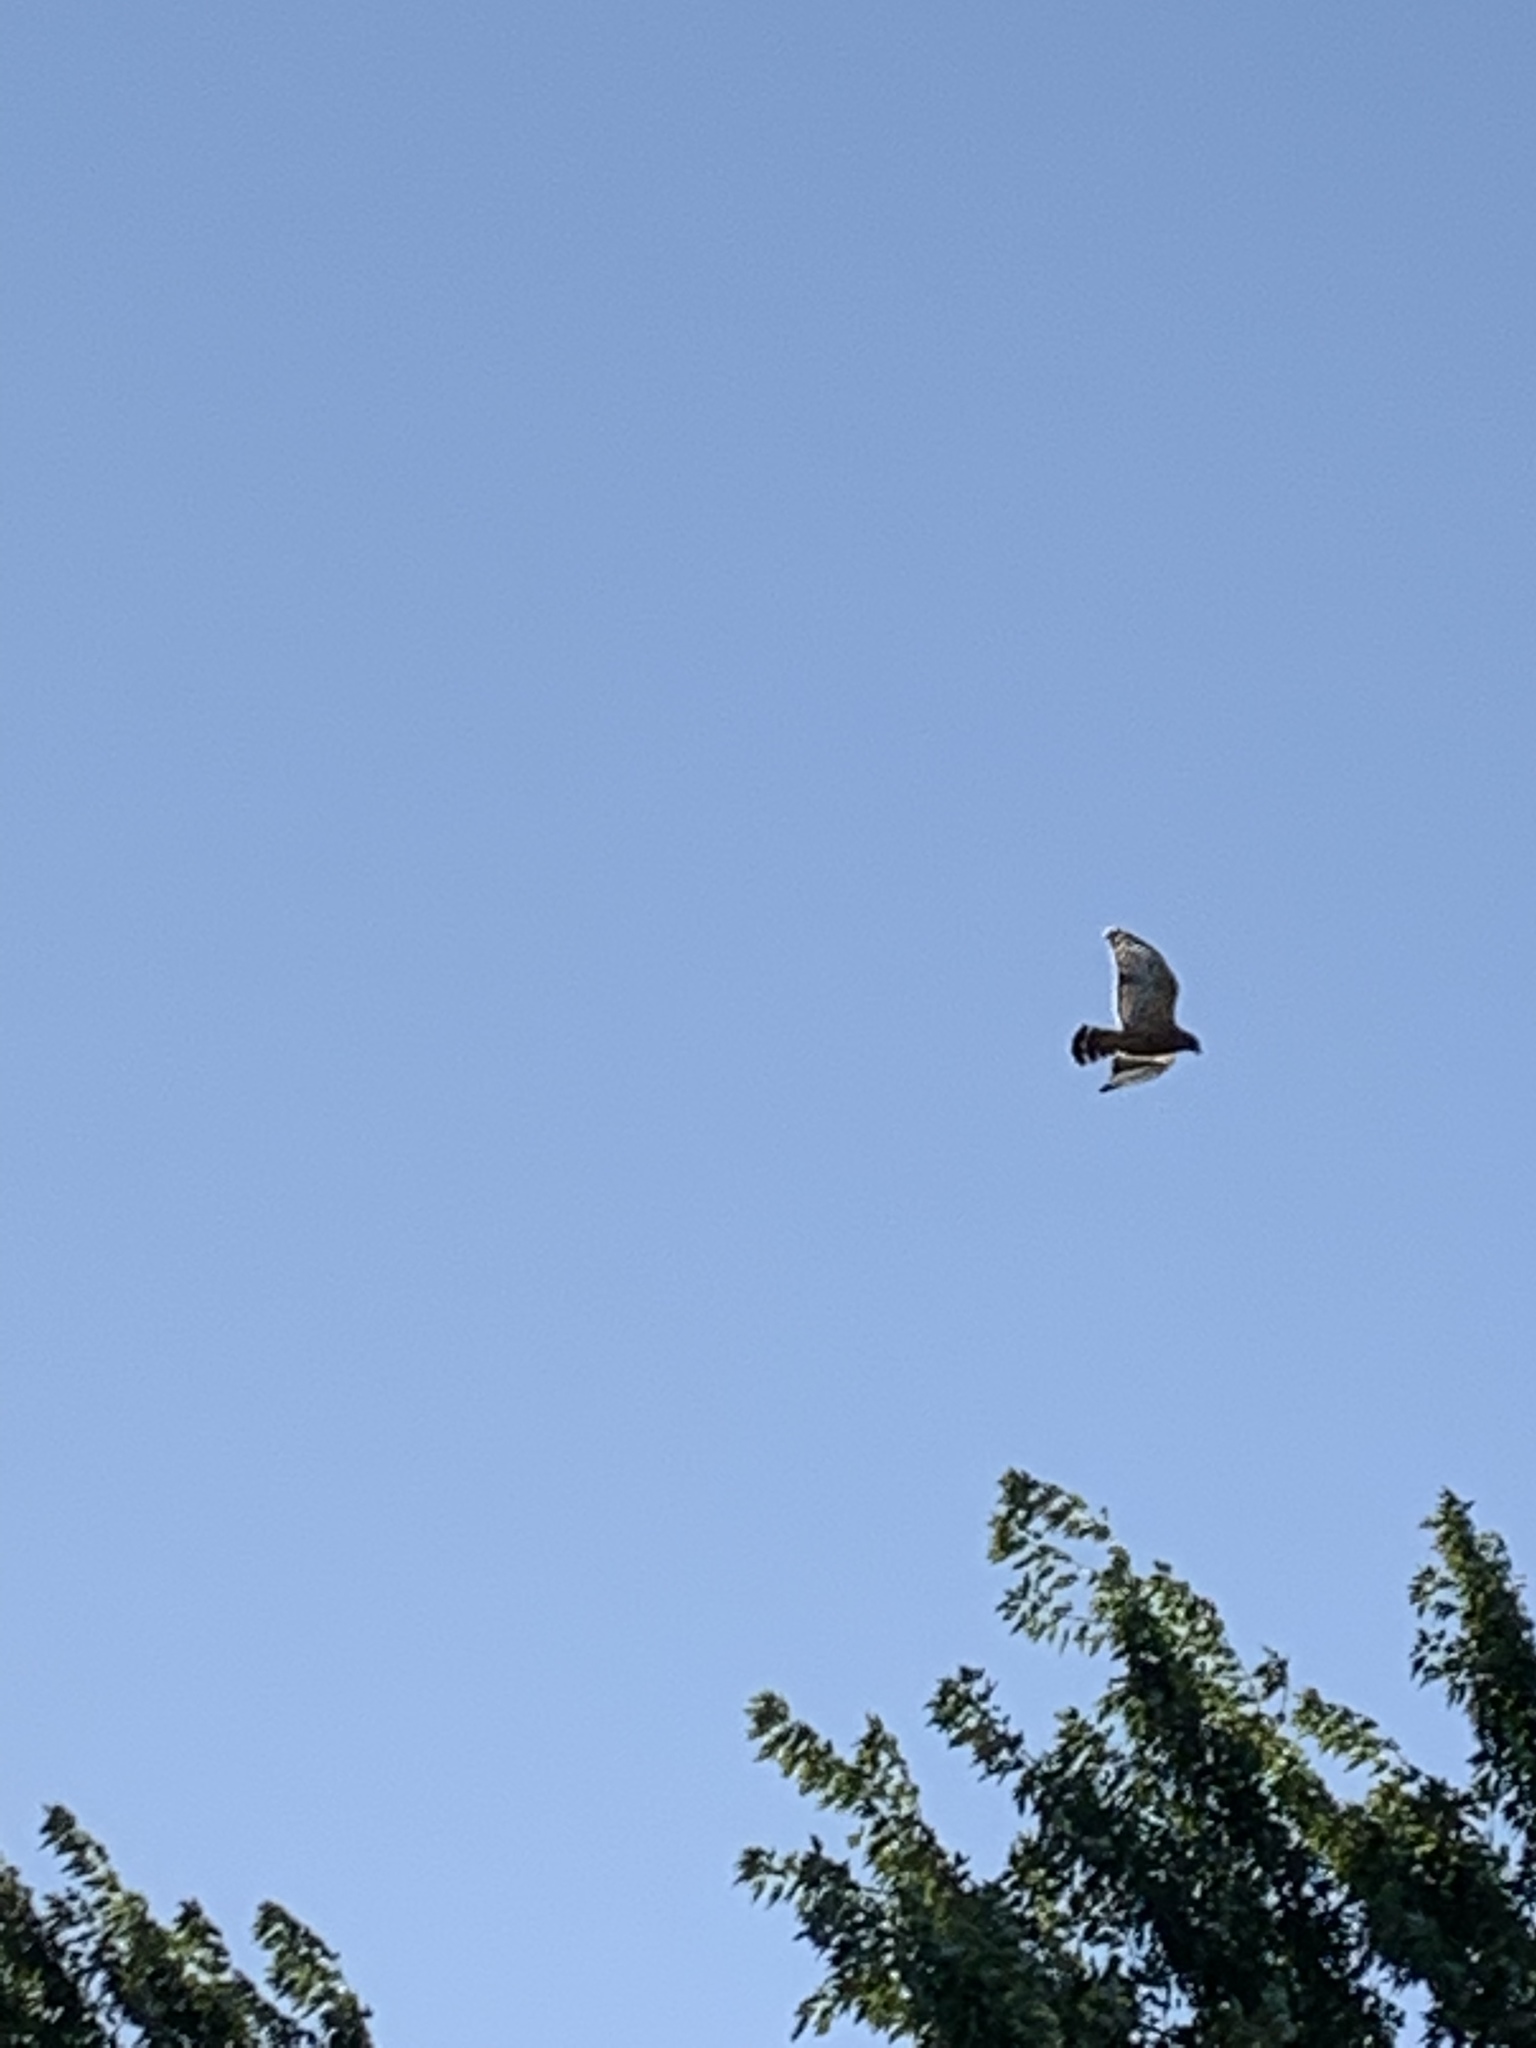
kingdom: Animalia
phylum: Chordata
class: Aves
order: Accipitriformes
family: Accipitridae
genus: Buteo
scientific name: Buteo lineatus
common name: Red-shouldered hawk
